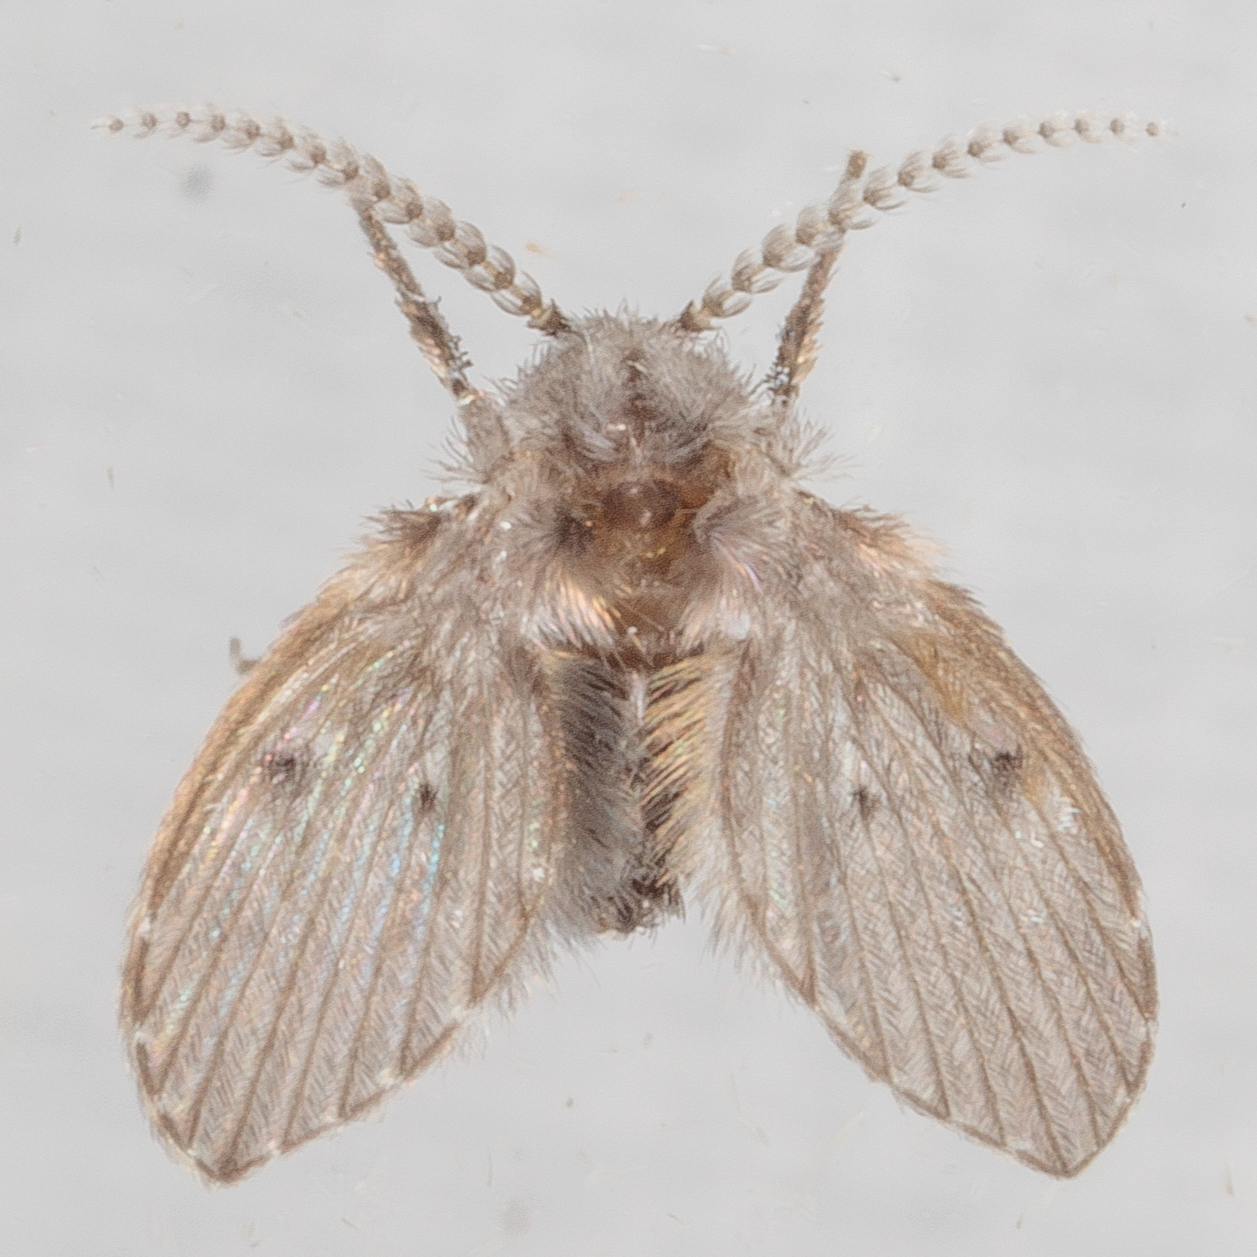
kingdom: Animalia
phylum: Arthropoda
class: Insecta
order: Diptera
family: Psychodidae
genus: Clogmia
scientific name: Clogmia albipunctatus
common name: White-spotted moth fly
